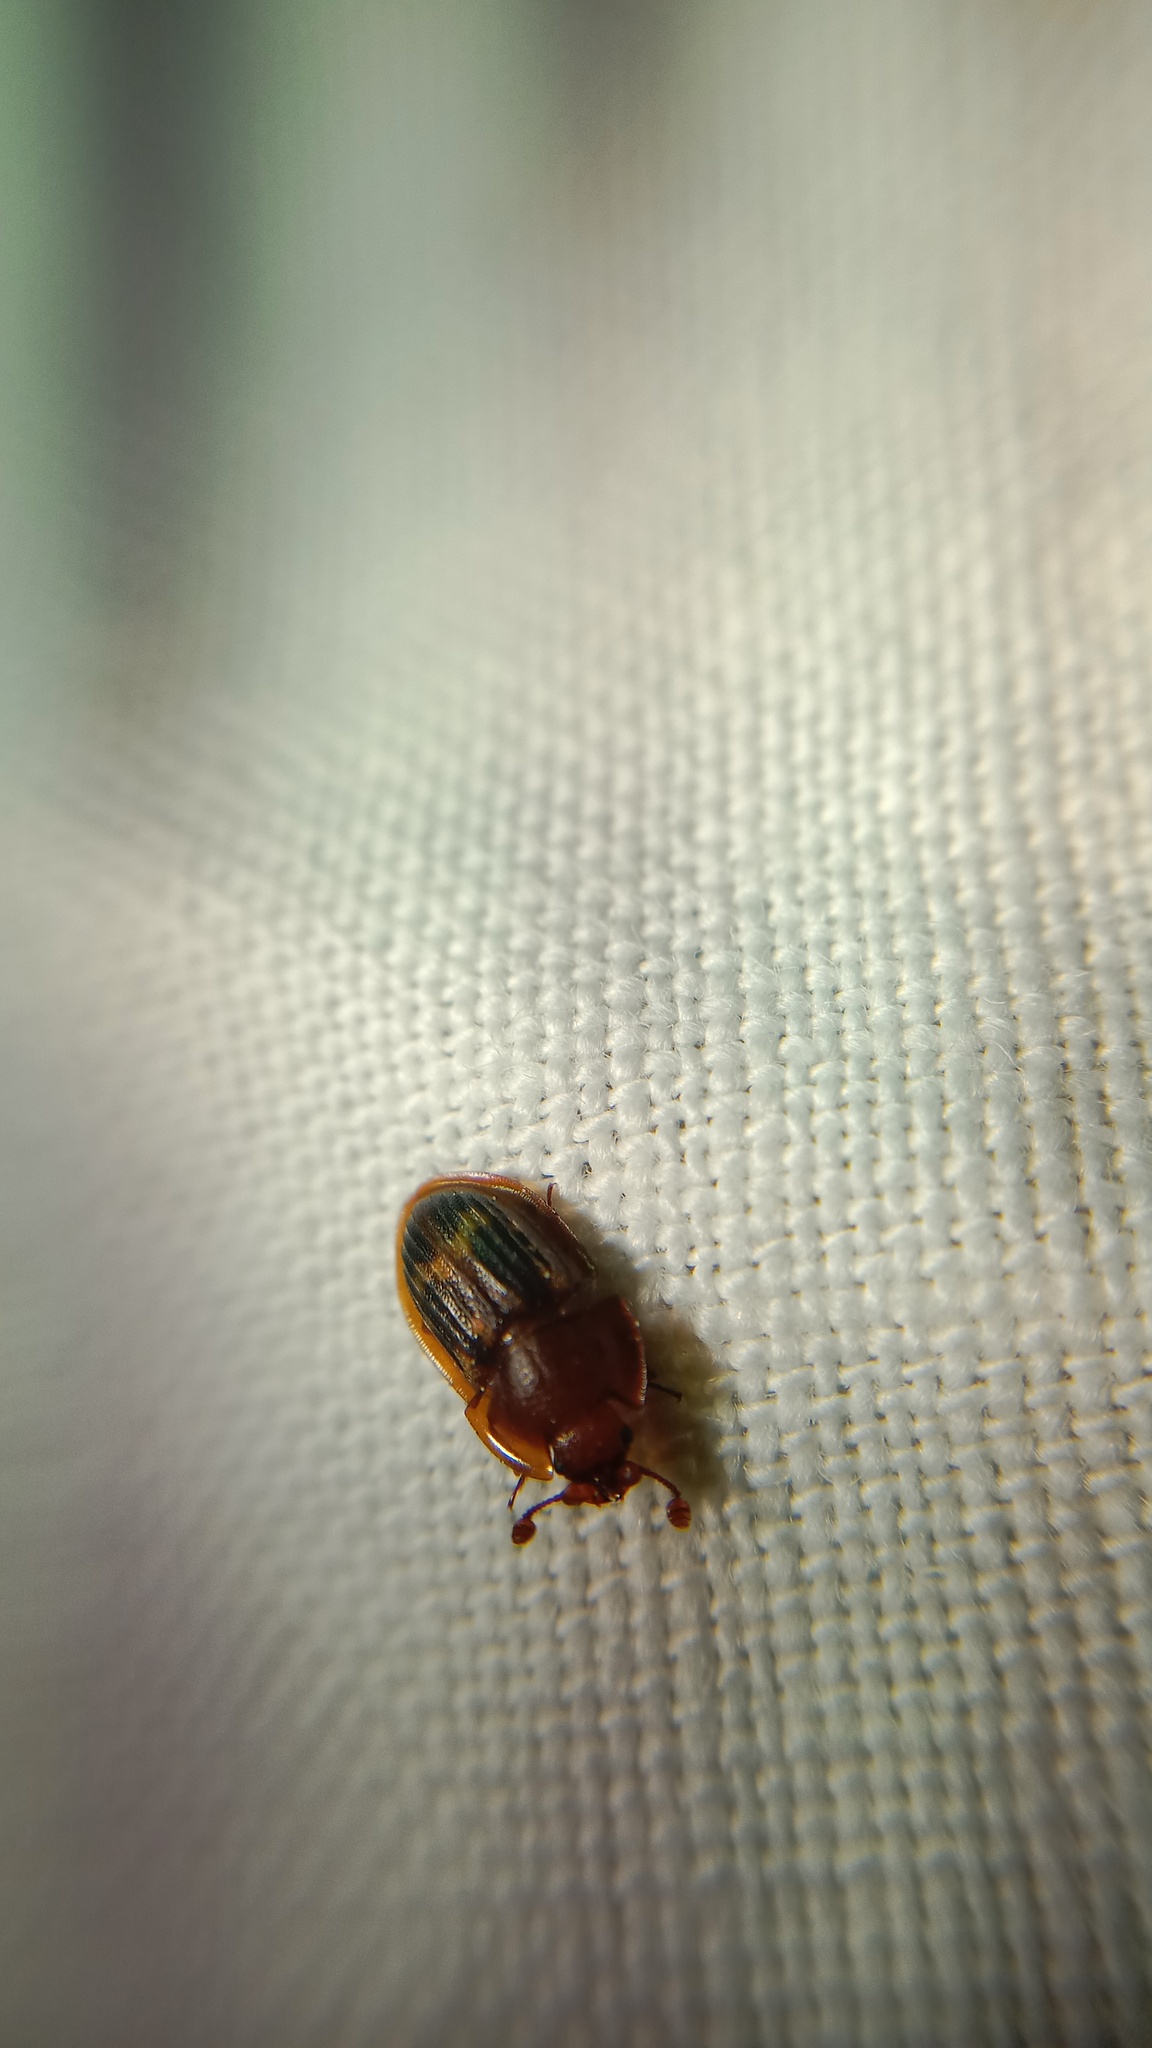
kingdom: Animalia
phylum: Arthropoda
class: Insecta
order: Coleoptera
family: Nitidulidae
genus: Amphotis
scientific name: Amphotis marginata
